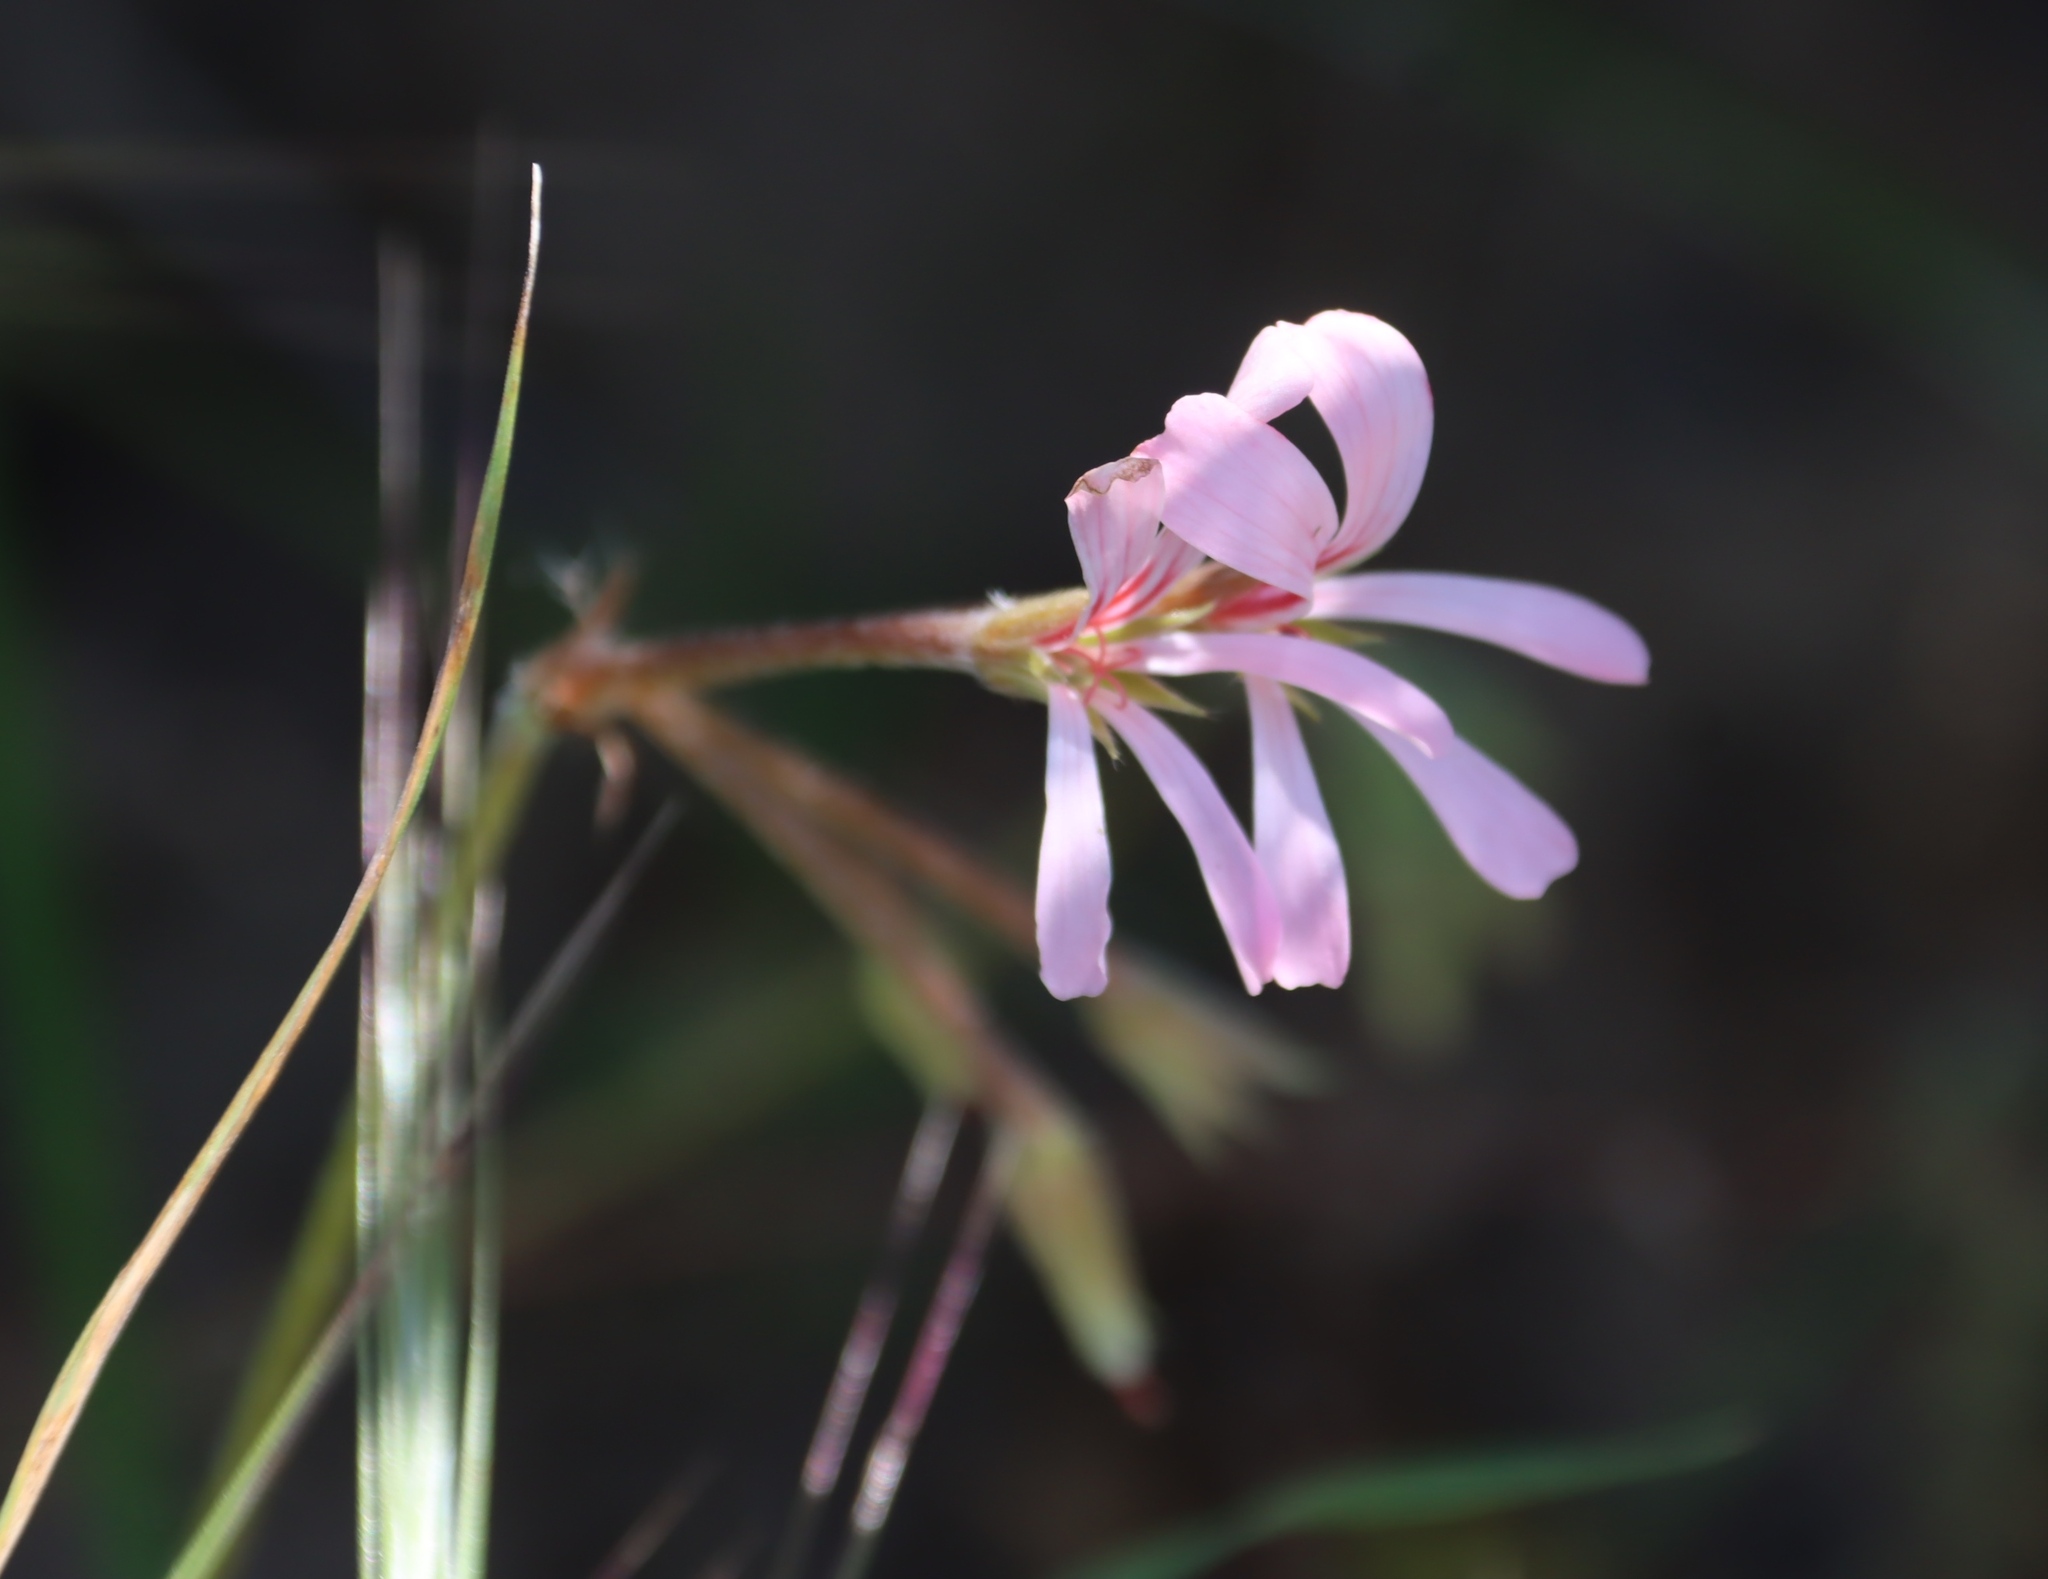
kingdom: Plantae
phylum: Tracheophyta
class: Magnoliopsida
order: Geraniales
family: Geraniaceae
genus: Pelargonium
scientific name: Pelargonium alchemilloides
